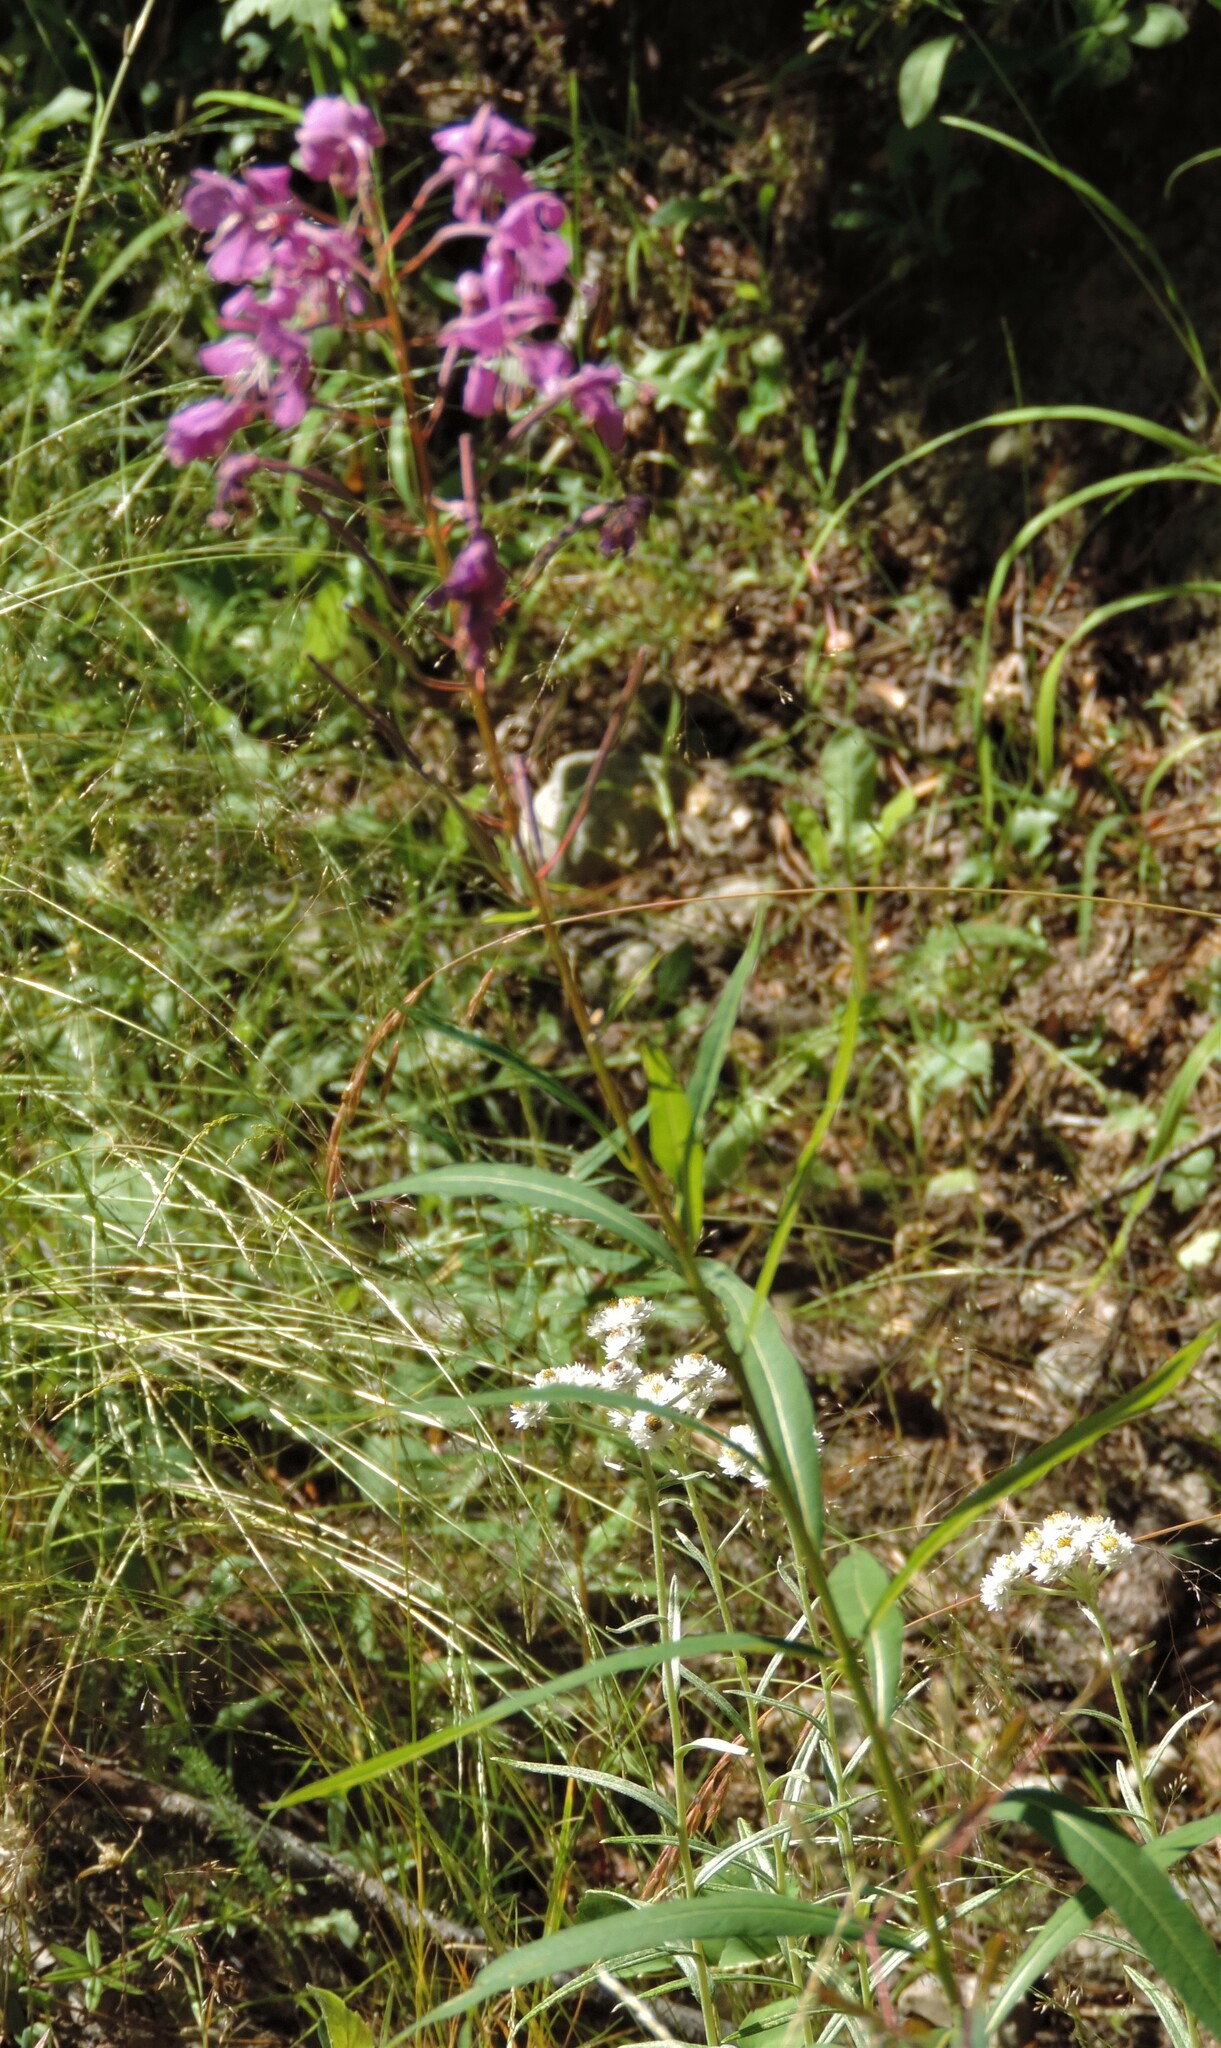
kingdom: Plantae
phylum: Tracheophyta
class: Magnoliopsida
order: Myrtales
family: Onagraceae
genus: Chamaenerion
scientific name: Chamaenerion angustifolium
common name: Fireweed
